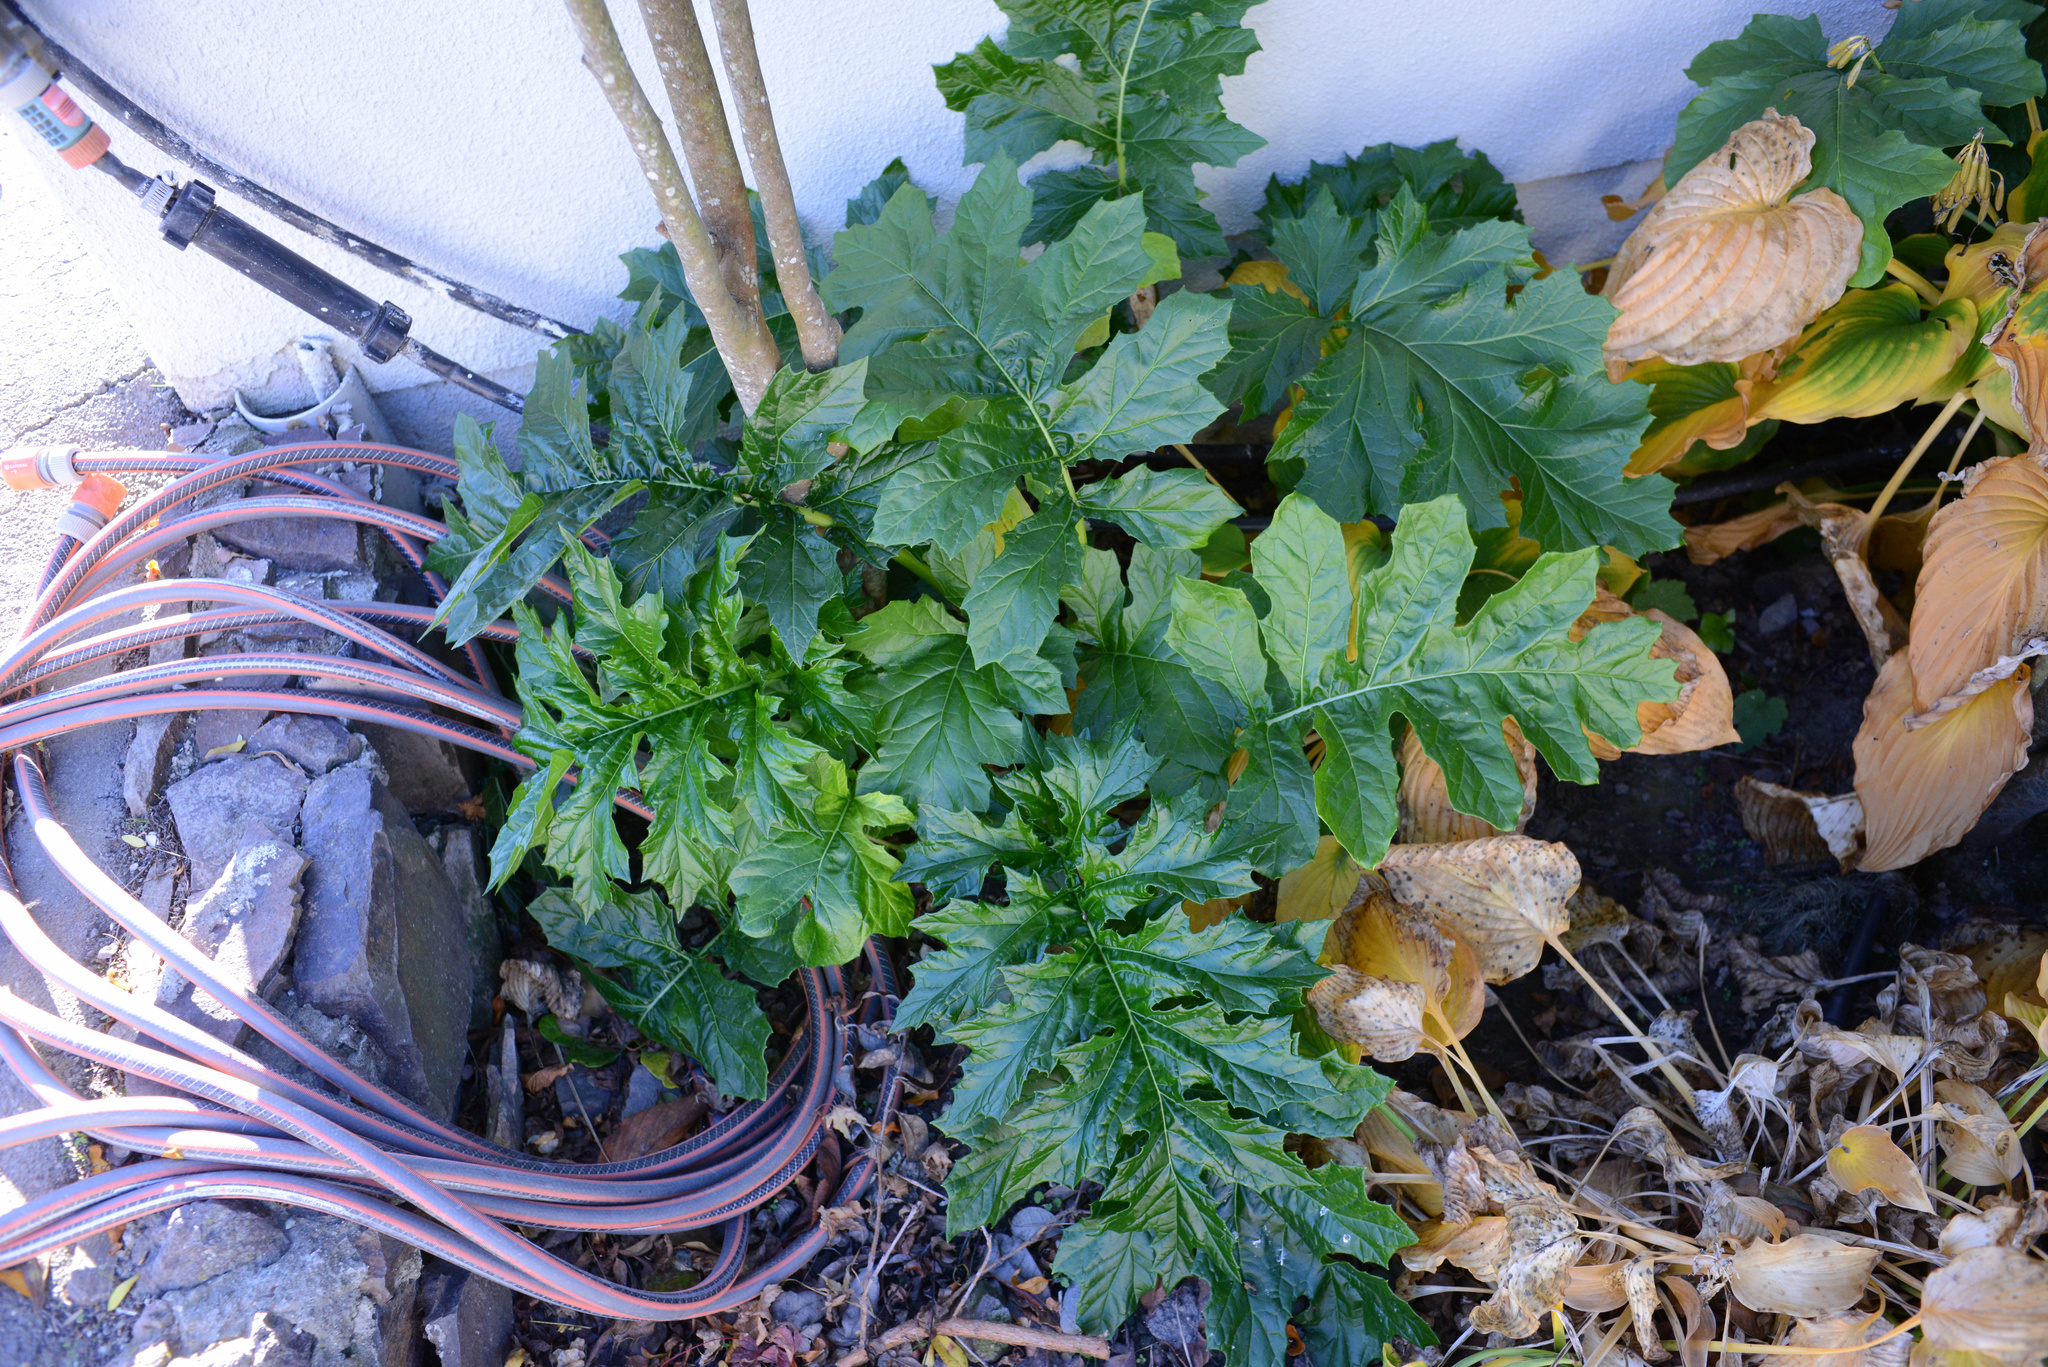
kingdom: Plantae
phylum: Tracheophyta
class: Magnoliopsida
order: Lamiales
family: Acanthaceae
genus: Acanthus
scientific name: Acanthus mollis
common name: Bear's-breech
